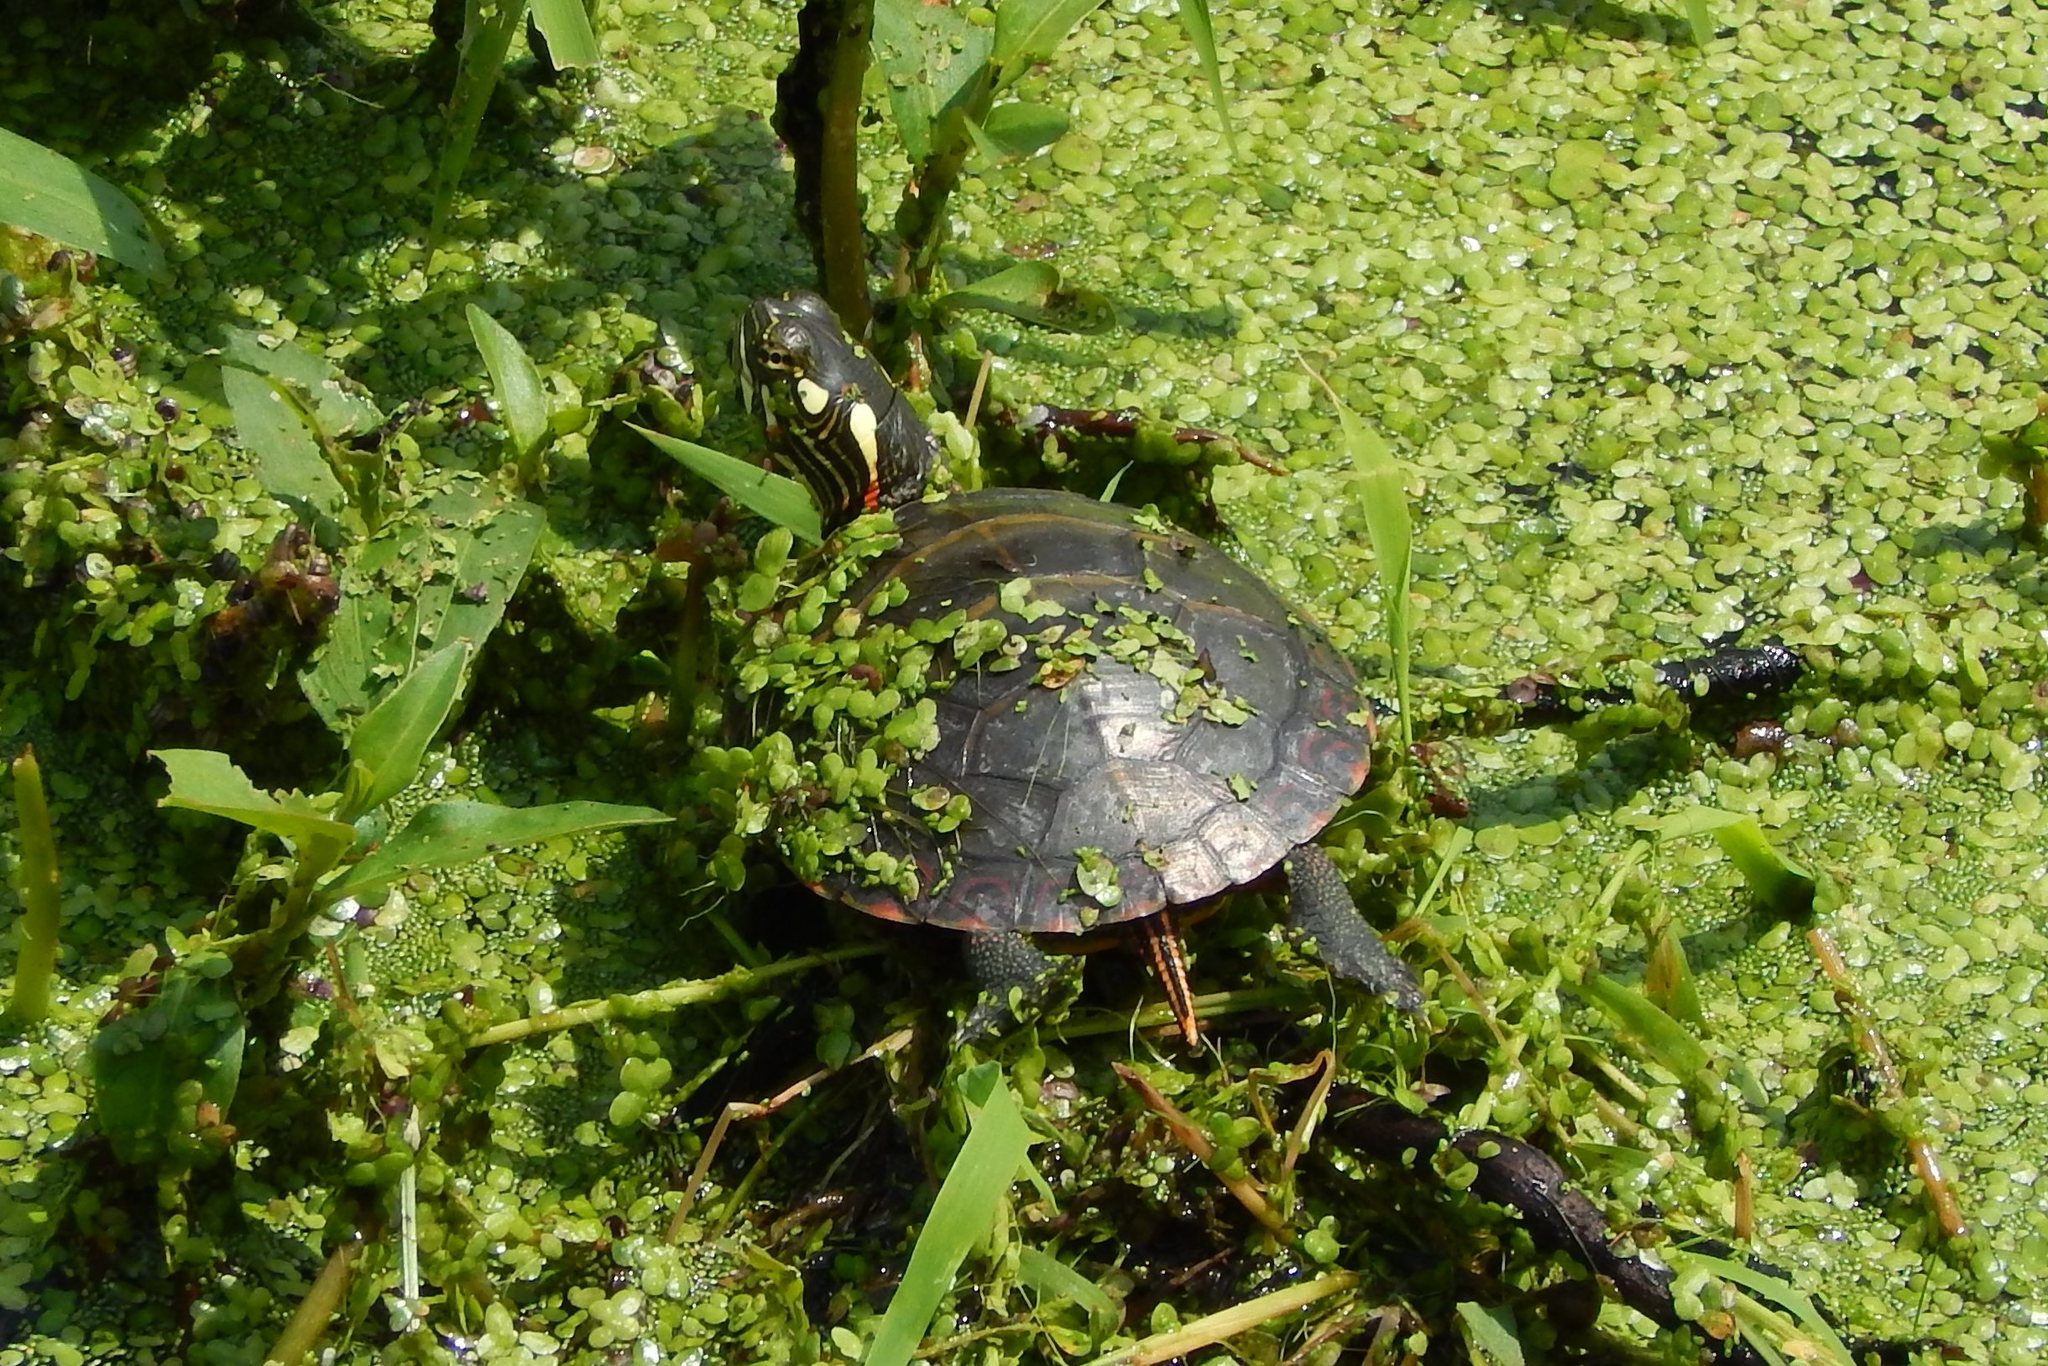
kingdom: Animalia
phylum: Chordata
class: Testudines
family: Emydidae
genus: Chrysemys
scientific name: Chrysemys picta
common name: Painted turtle
